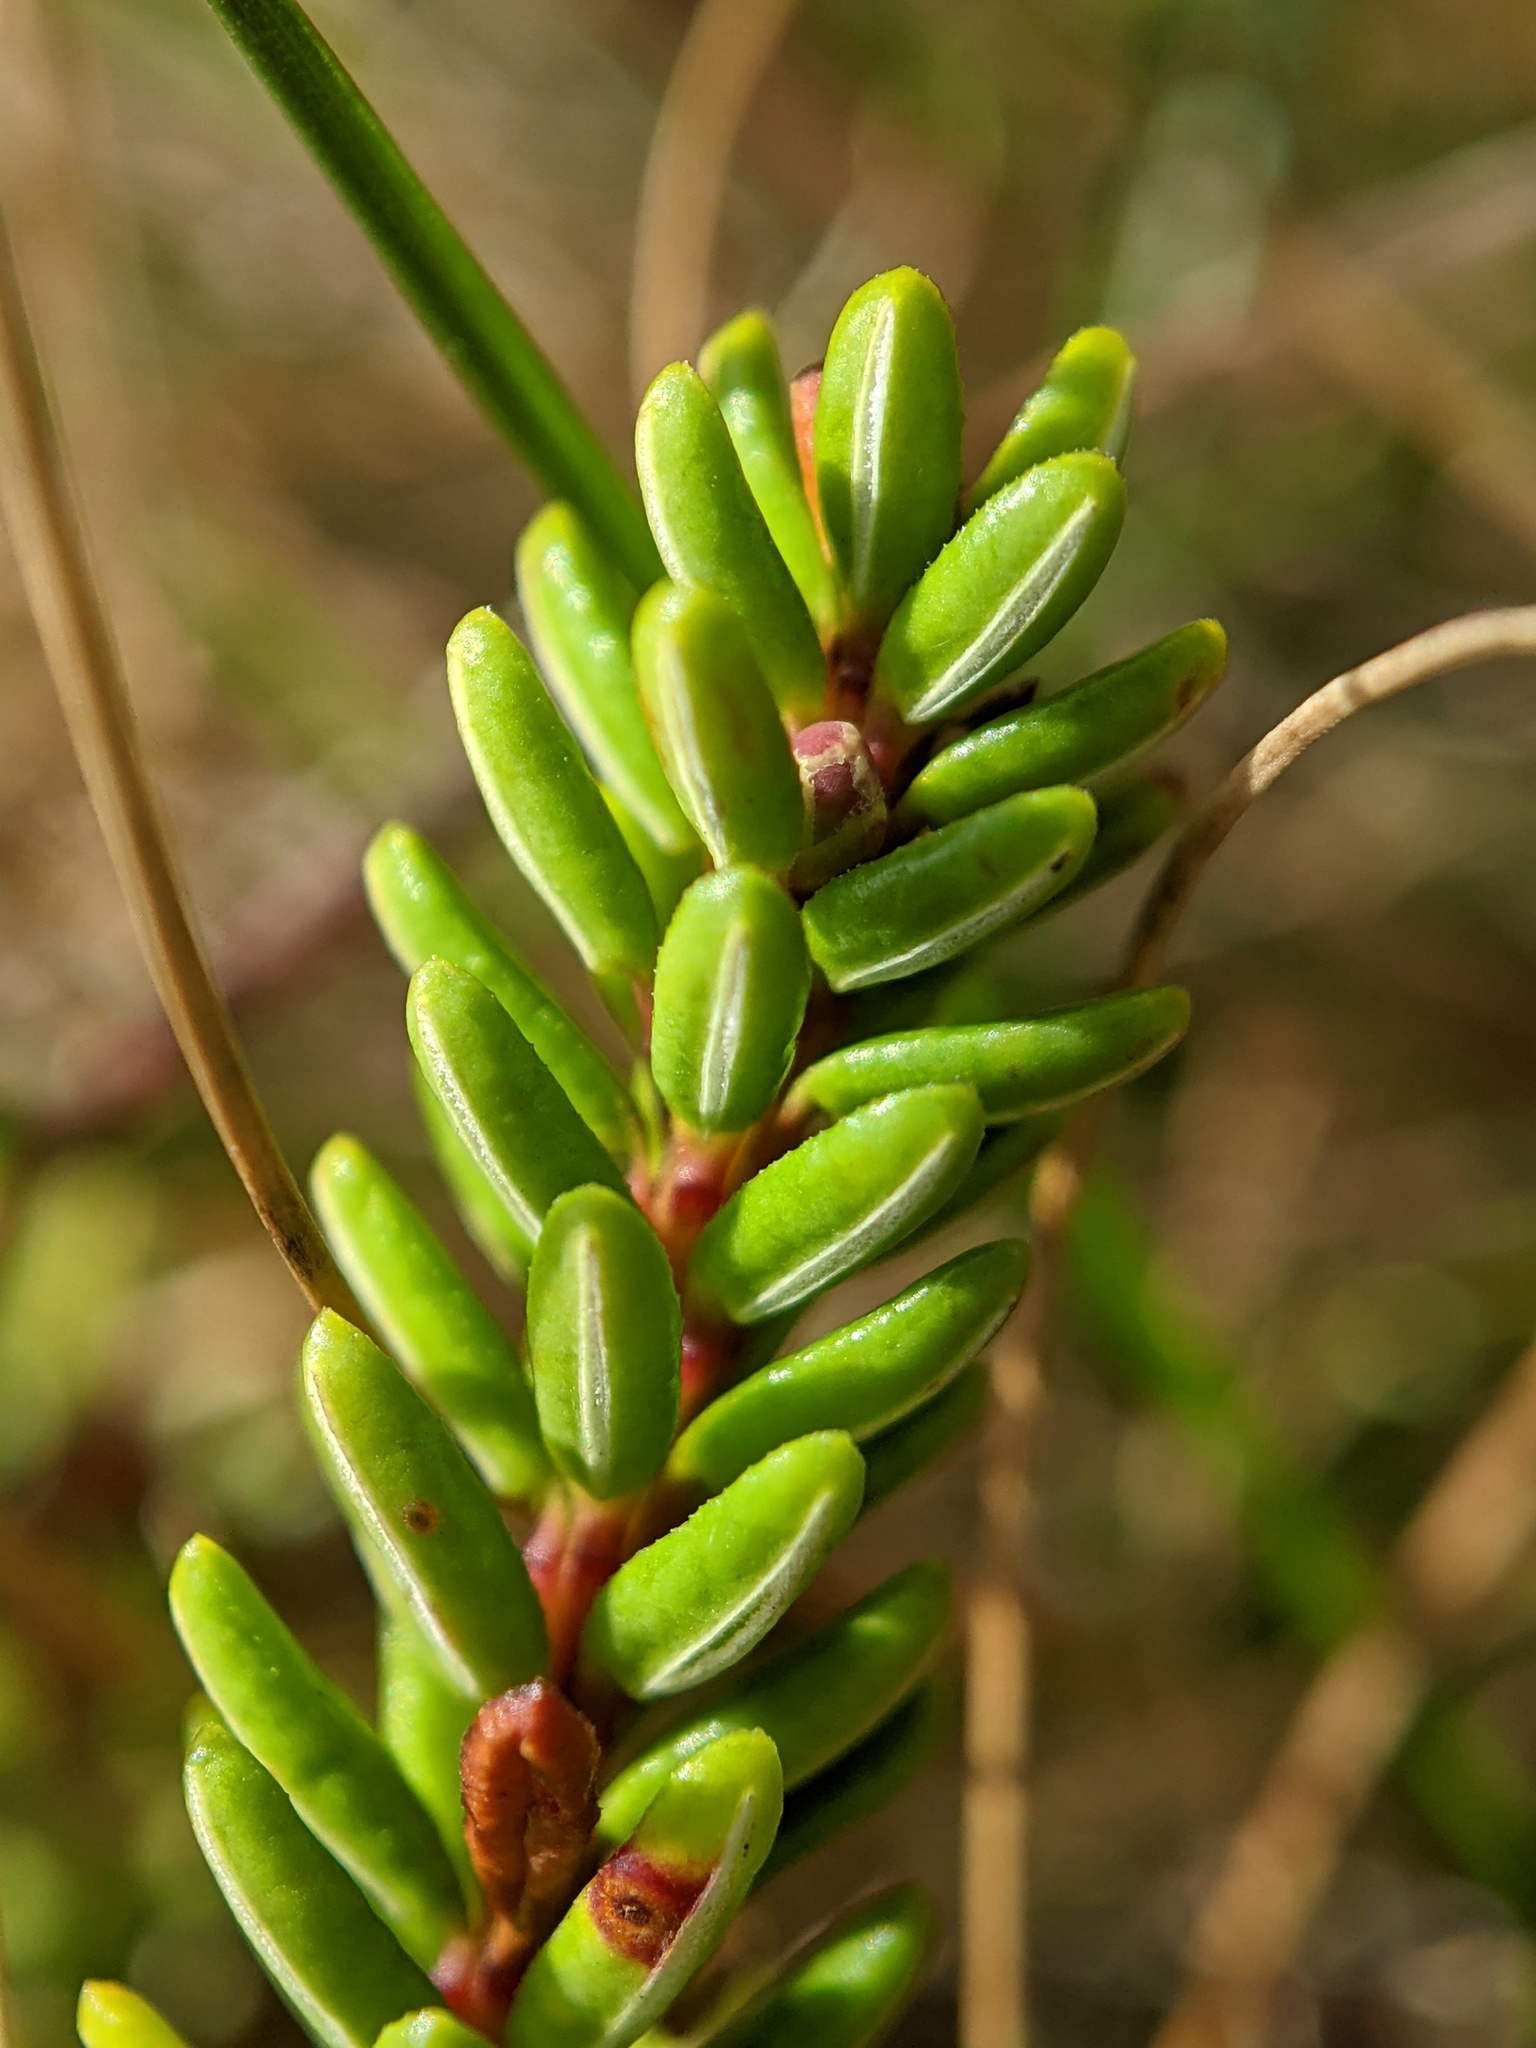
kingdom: Plantae
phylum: Tracheophyta
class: Magnoliopsida
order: Ericales
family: Ericaceae
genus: Empetrum
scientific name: Empetrum nigrum
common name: Black crowberry
